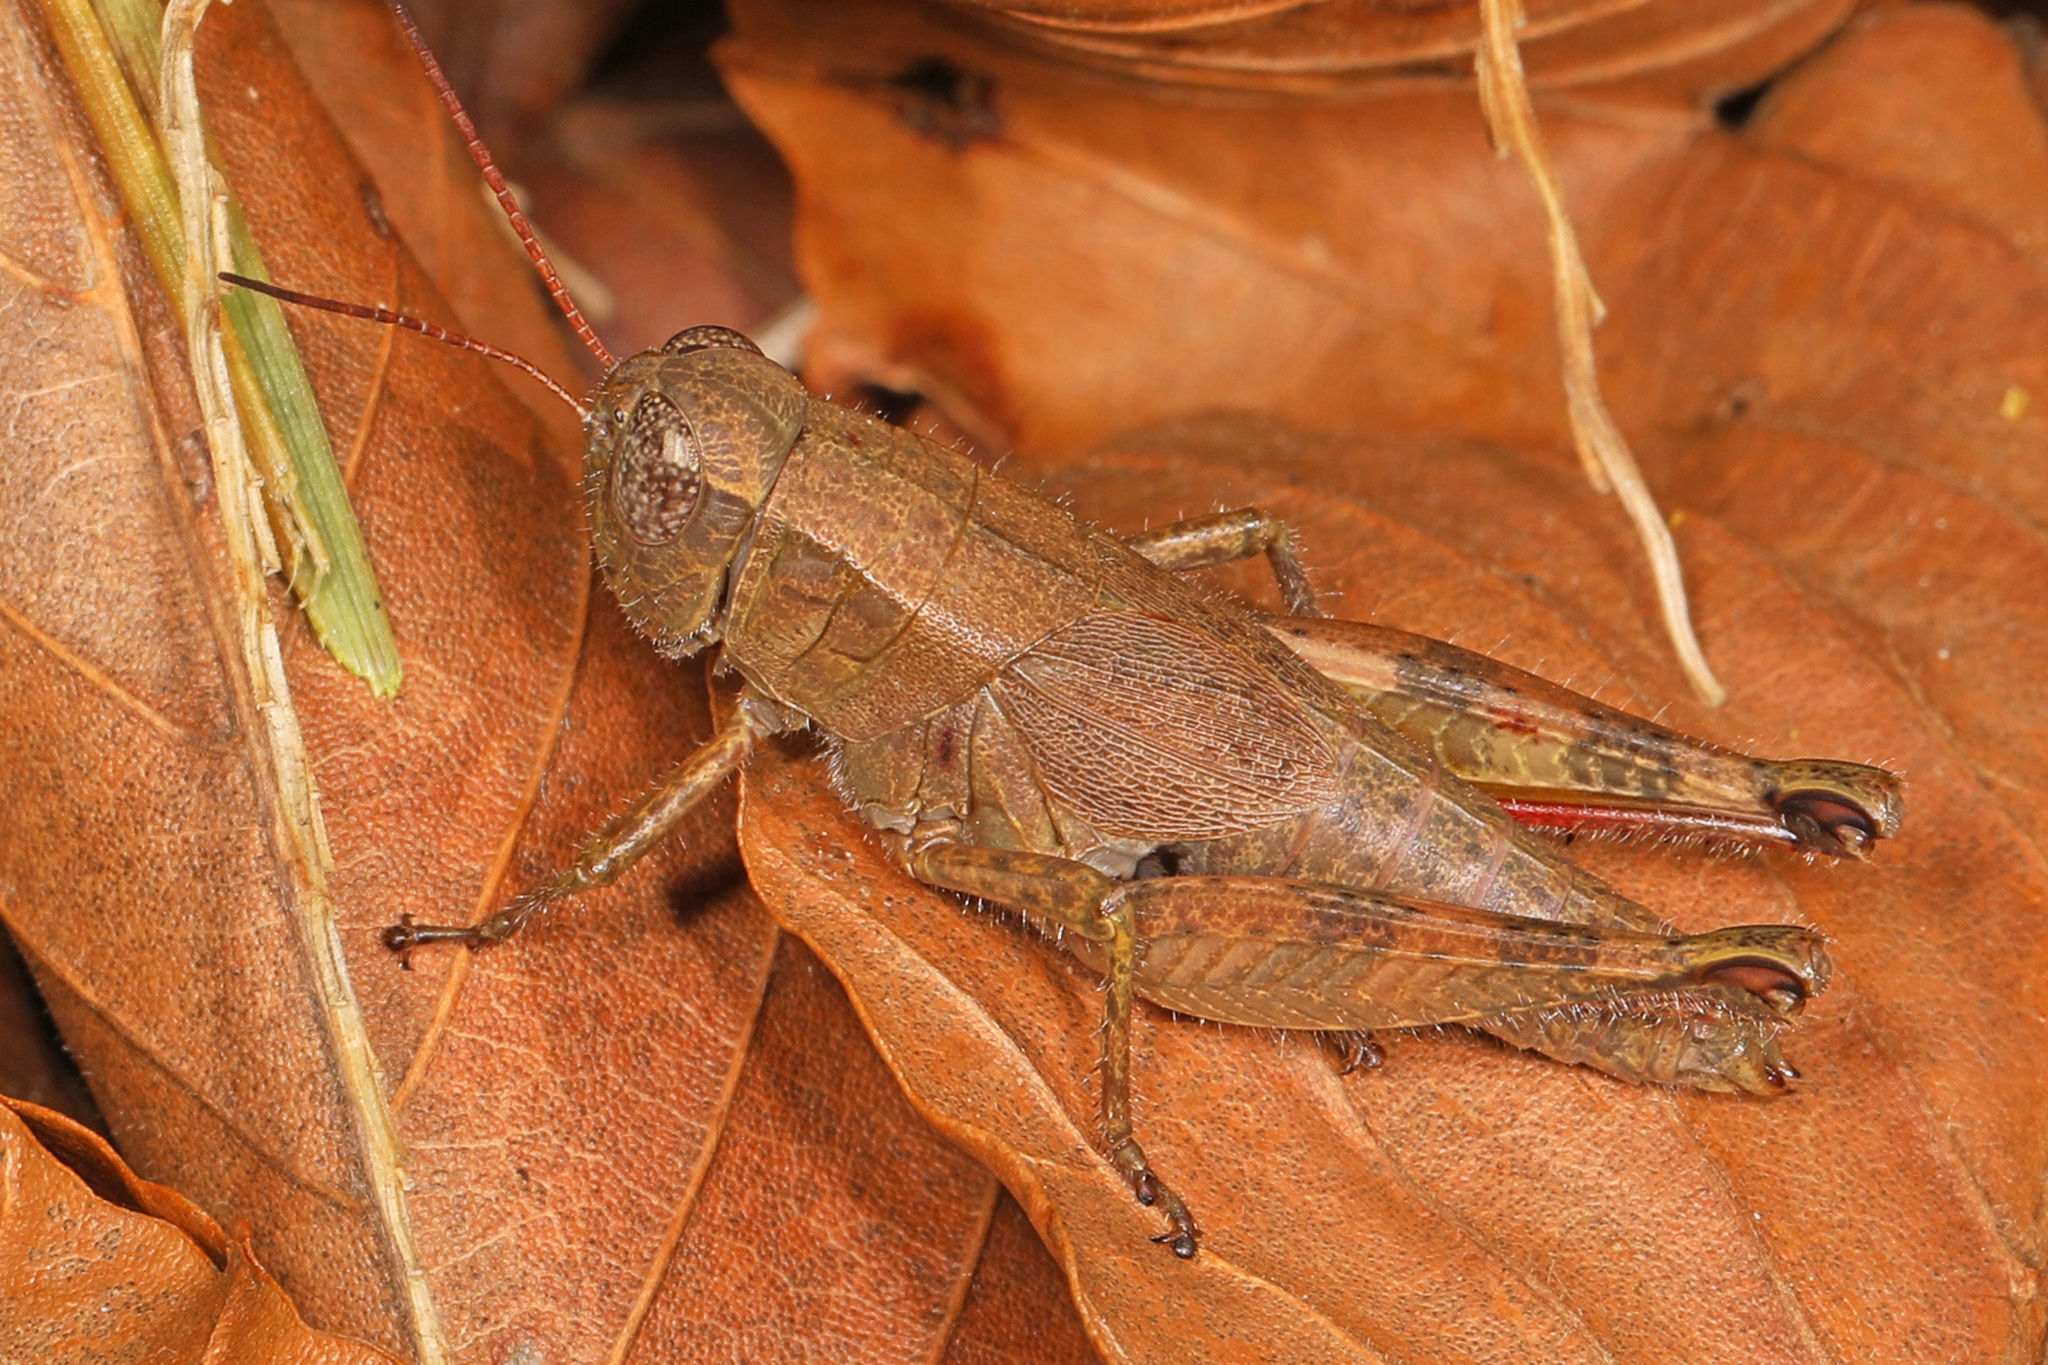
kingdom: Animalia
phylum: Arthropoda
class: Insecta
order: Orthoptera
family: Acrididae
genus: Melanoplus
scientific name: Melanoplus scudderi
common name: Scudder's short-winged locust
